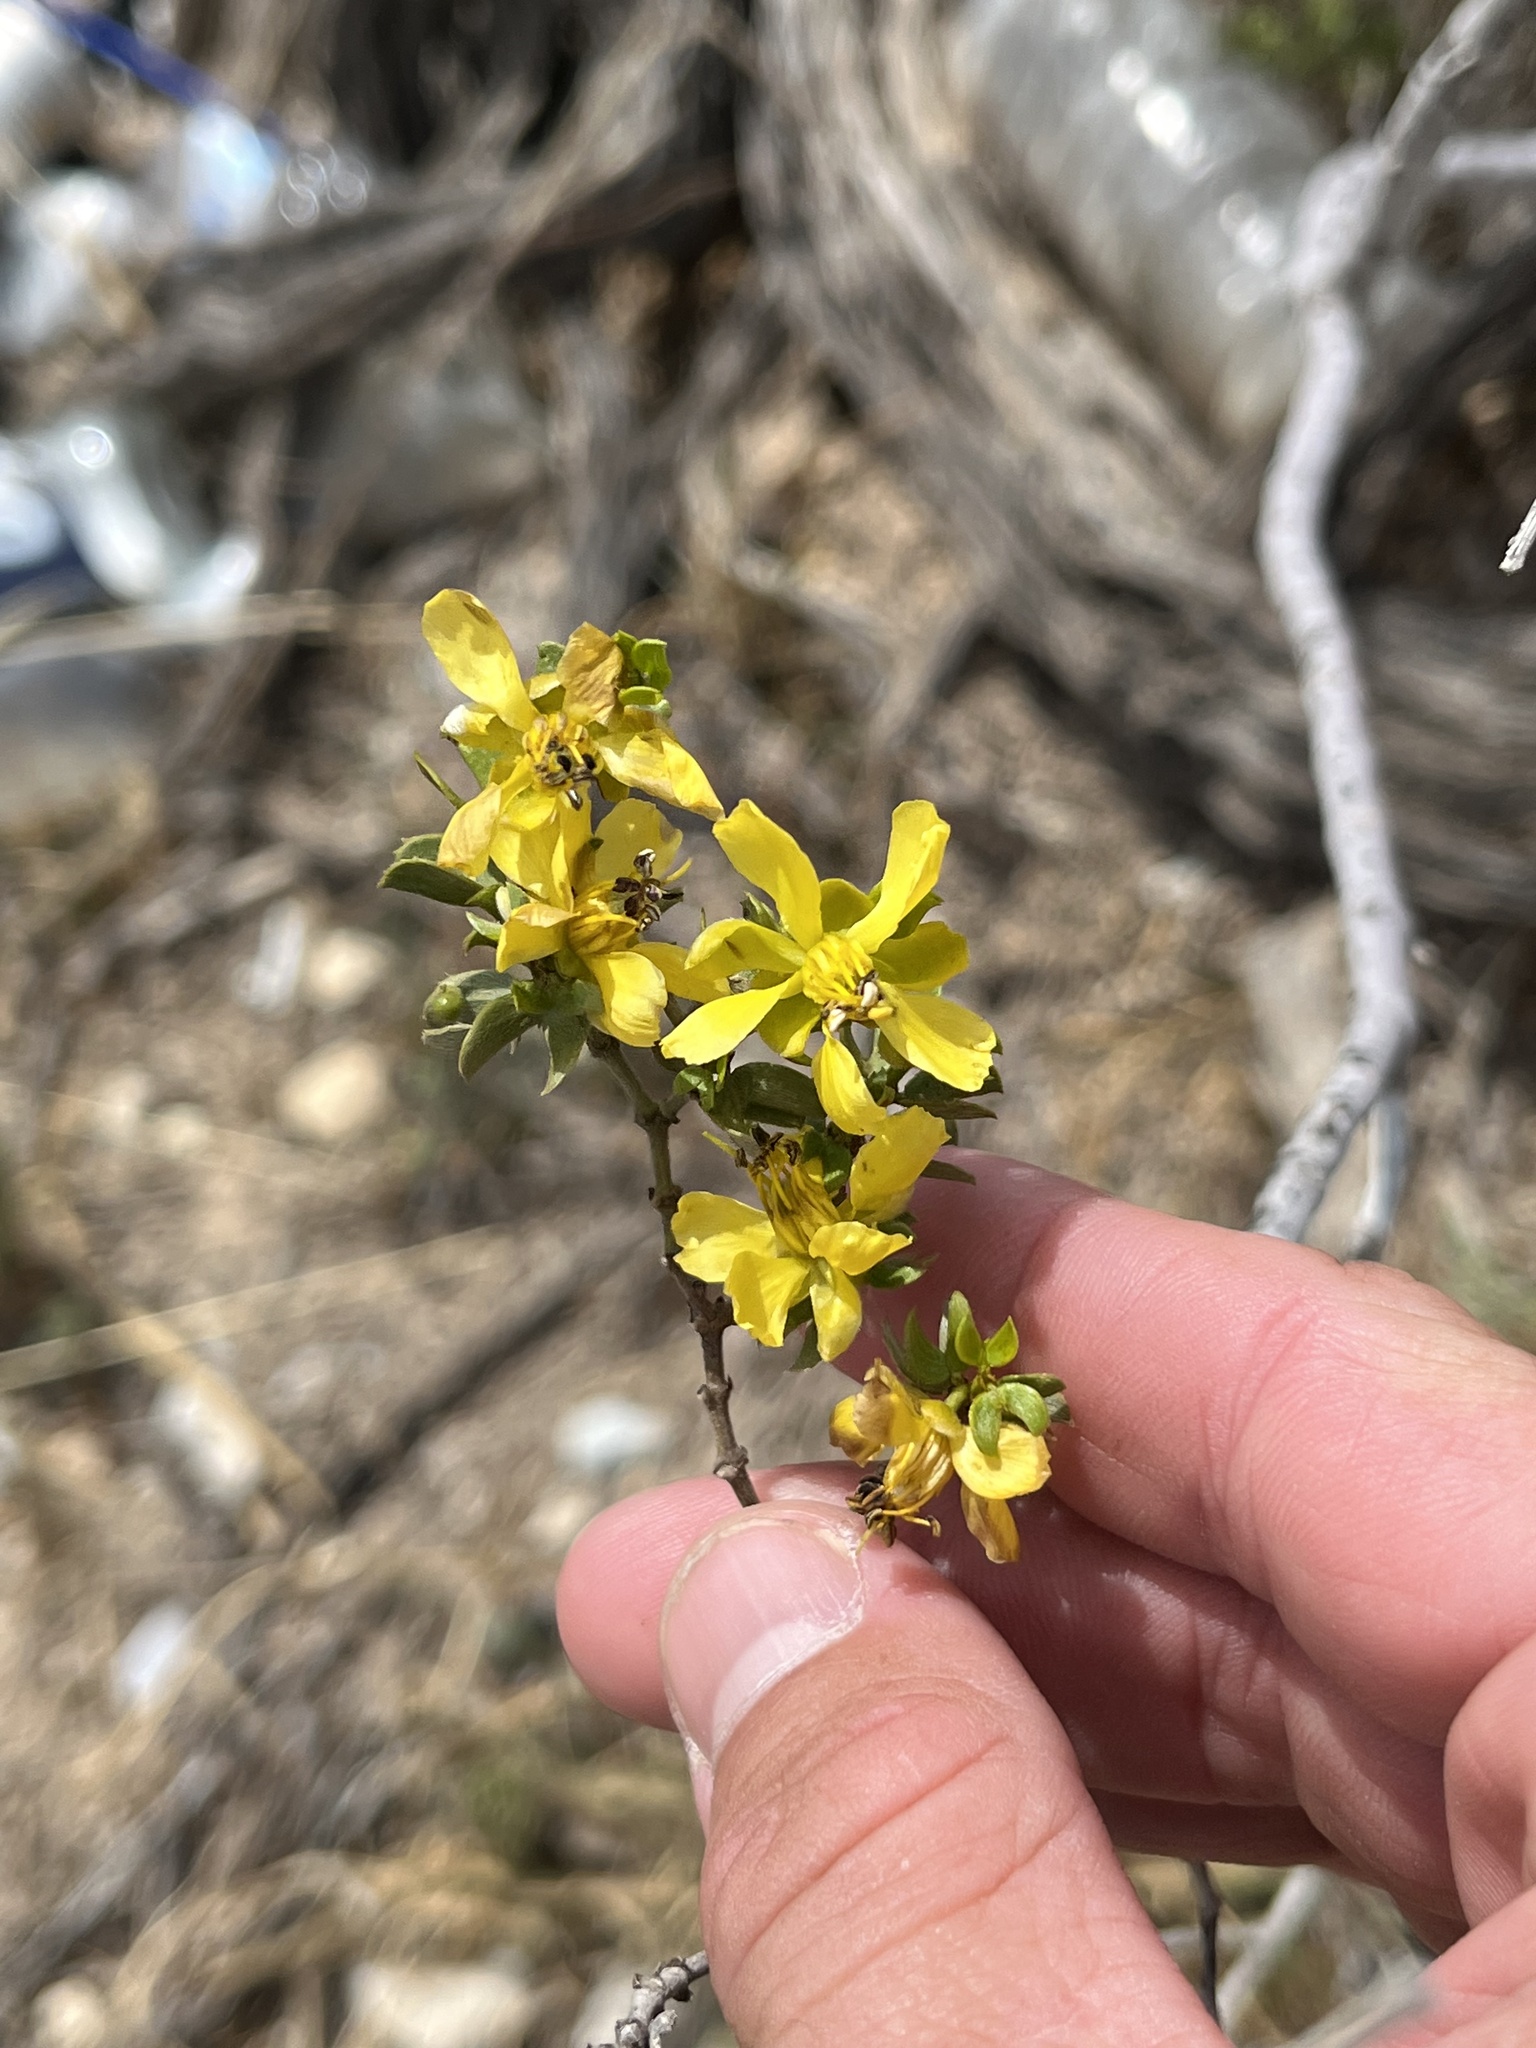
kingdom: Plantae
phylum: Tracheophyta
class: Magnoliopsida
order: Zygophyllales
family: Zygophyllaceae
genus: Larrea
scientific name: Larrea tridentata
